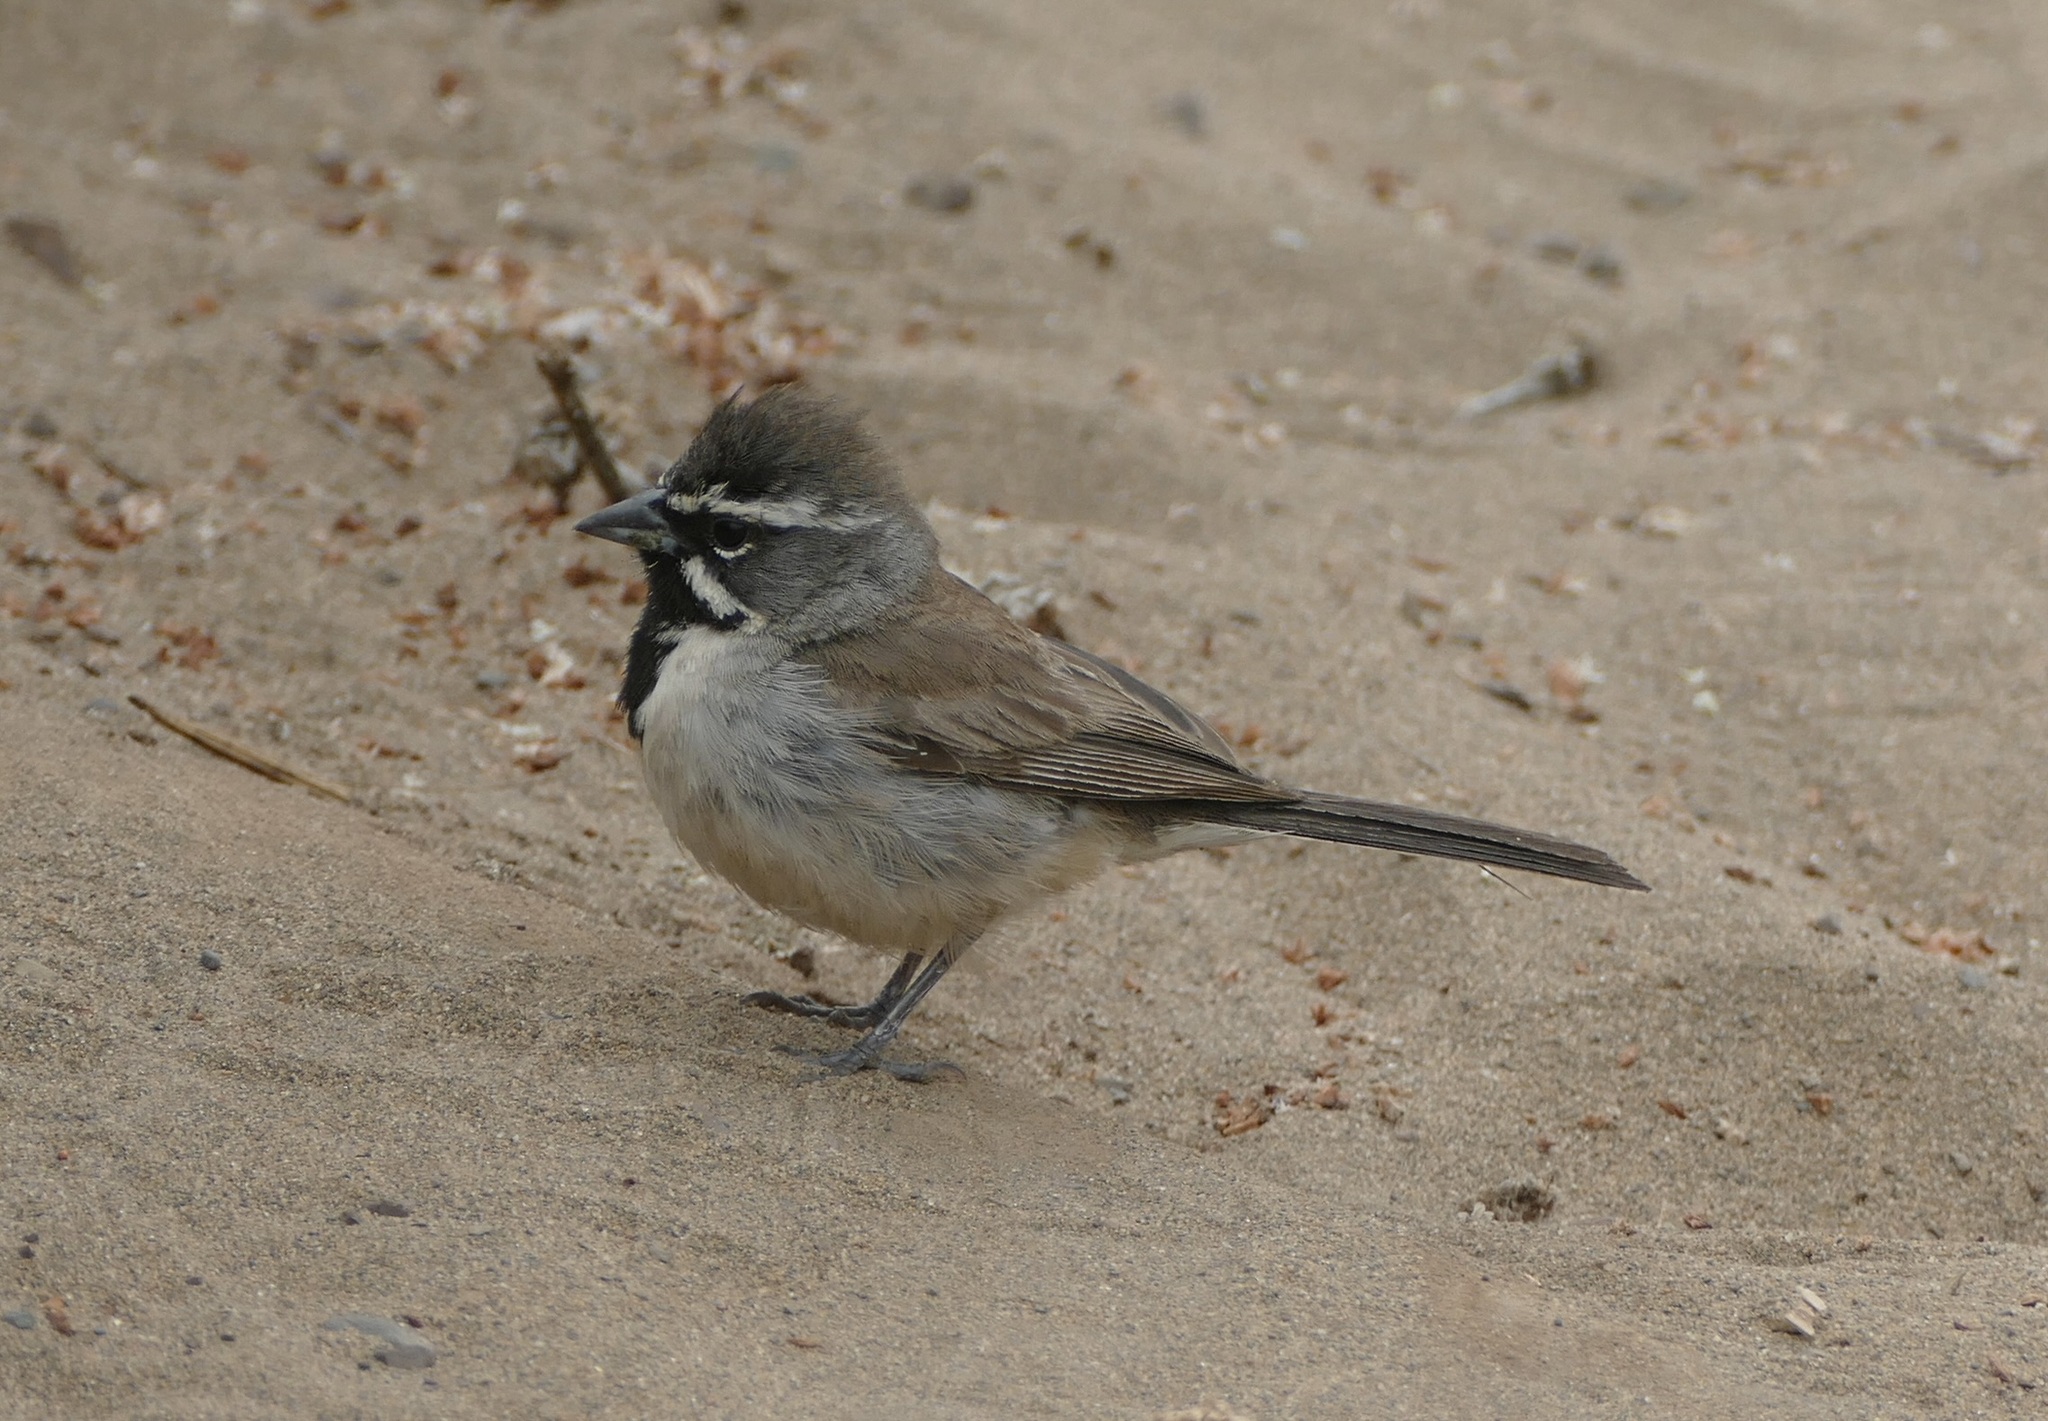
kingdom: Animalia
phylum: Chordata
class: Aves
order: Passeriformes
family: Passerellidae
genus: Amphispiza
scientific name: Amphispiza bilineata
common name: Black-throated sparrow
